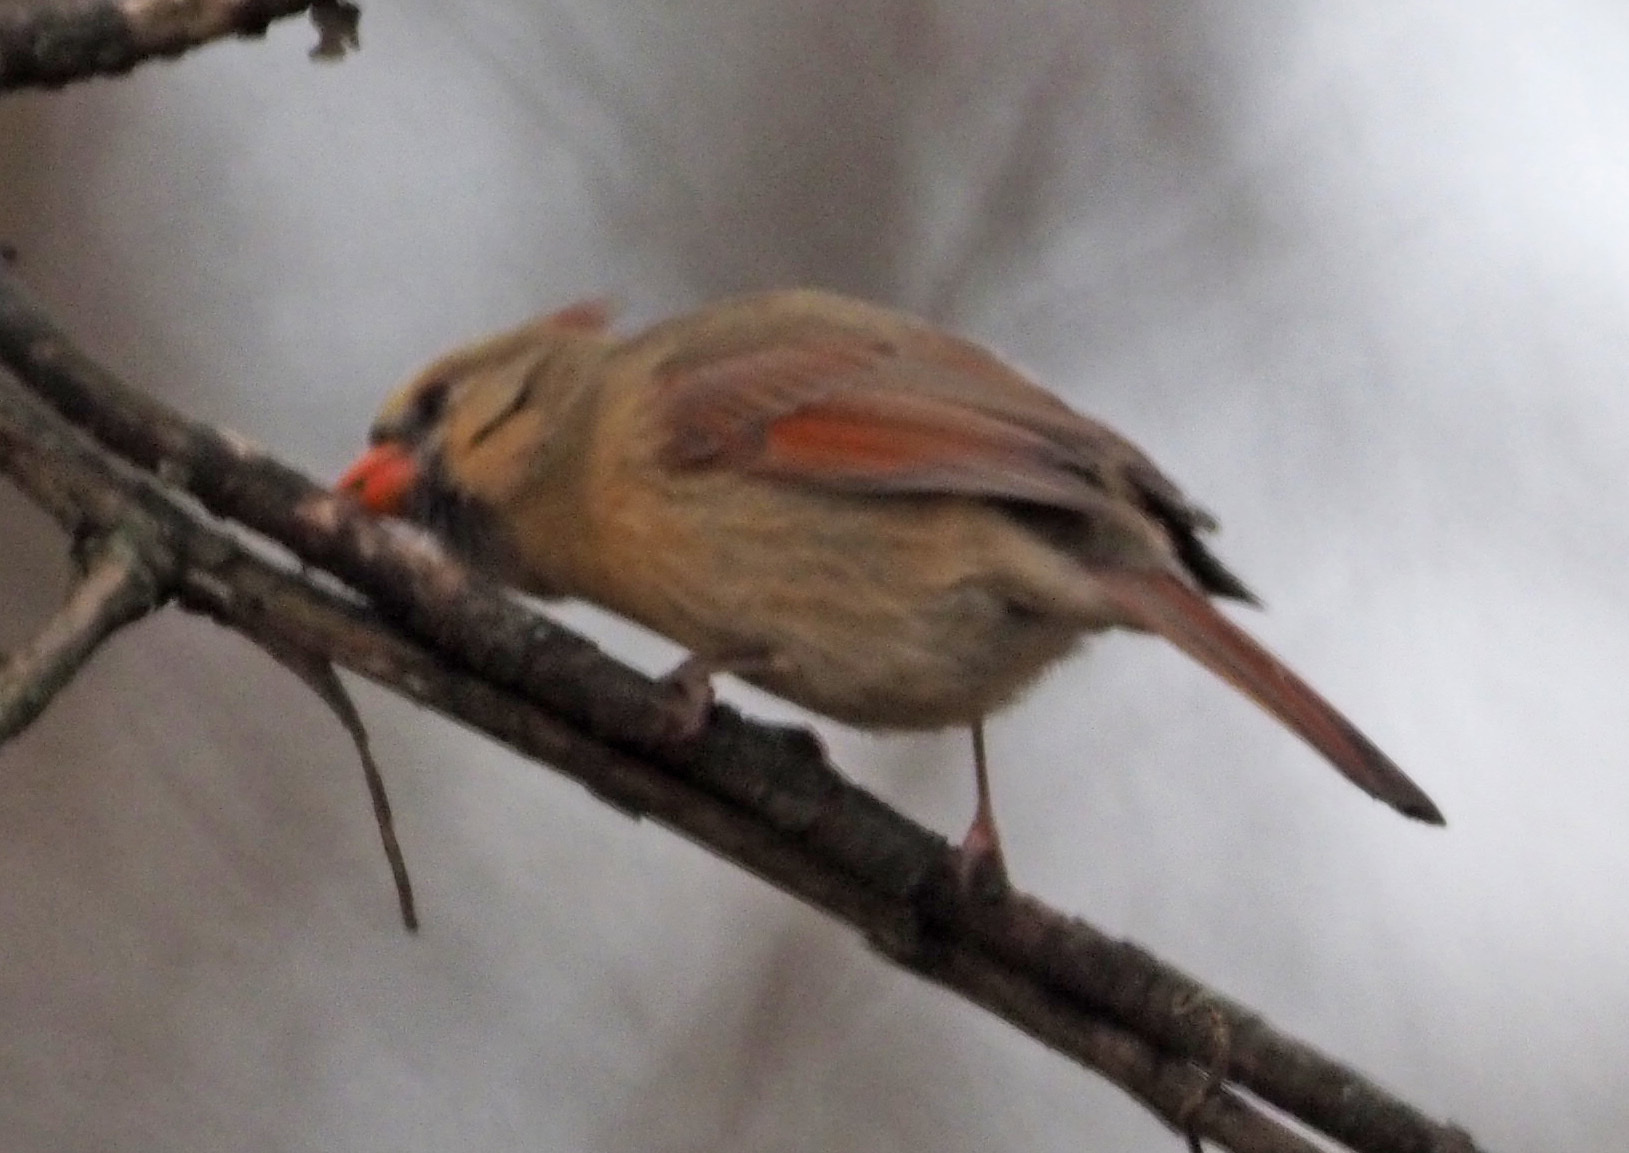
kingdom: Animalia
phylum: Chordata
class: Aves
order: Passeriformes
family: Cardinalidae
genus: Cardinalis
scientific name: Cardinalis cardinalis
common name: Northern cardinal
